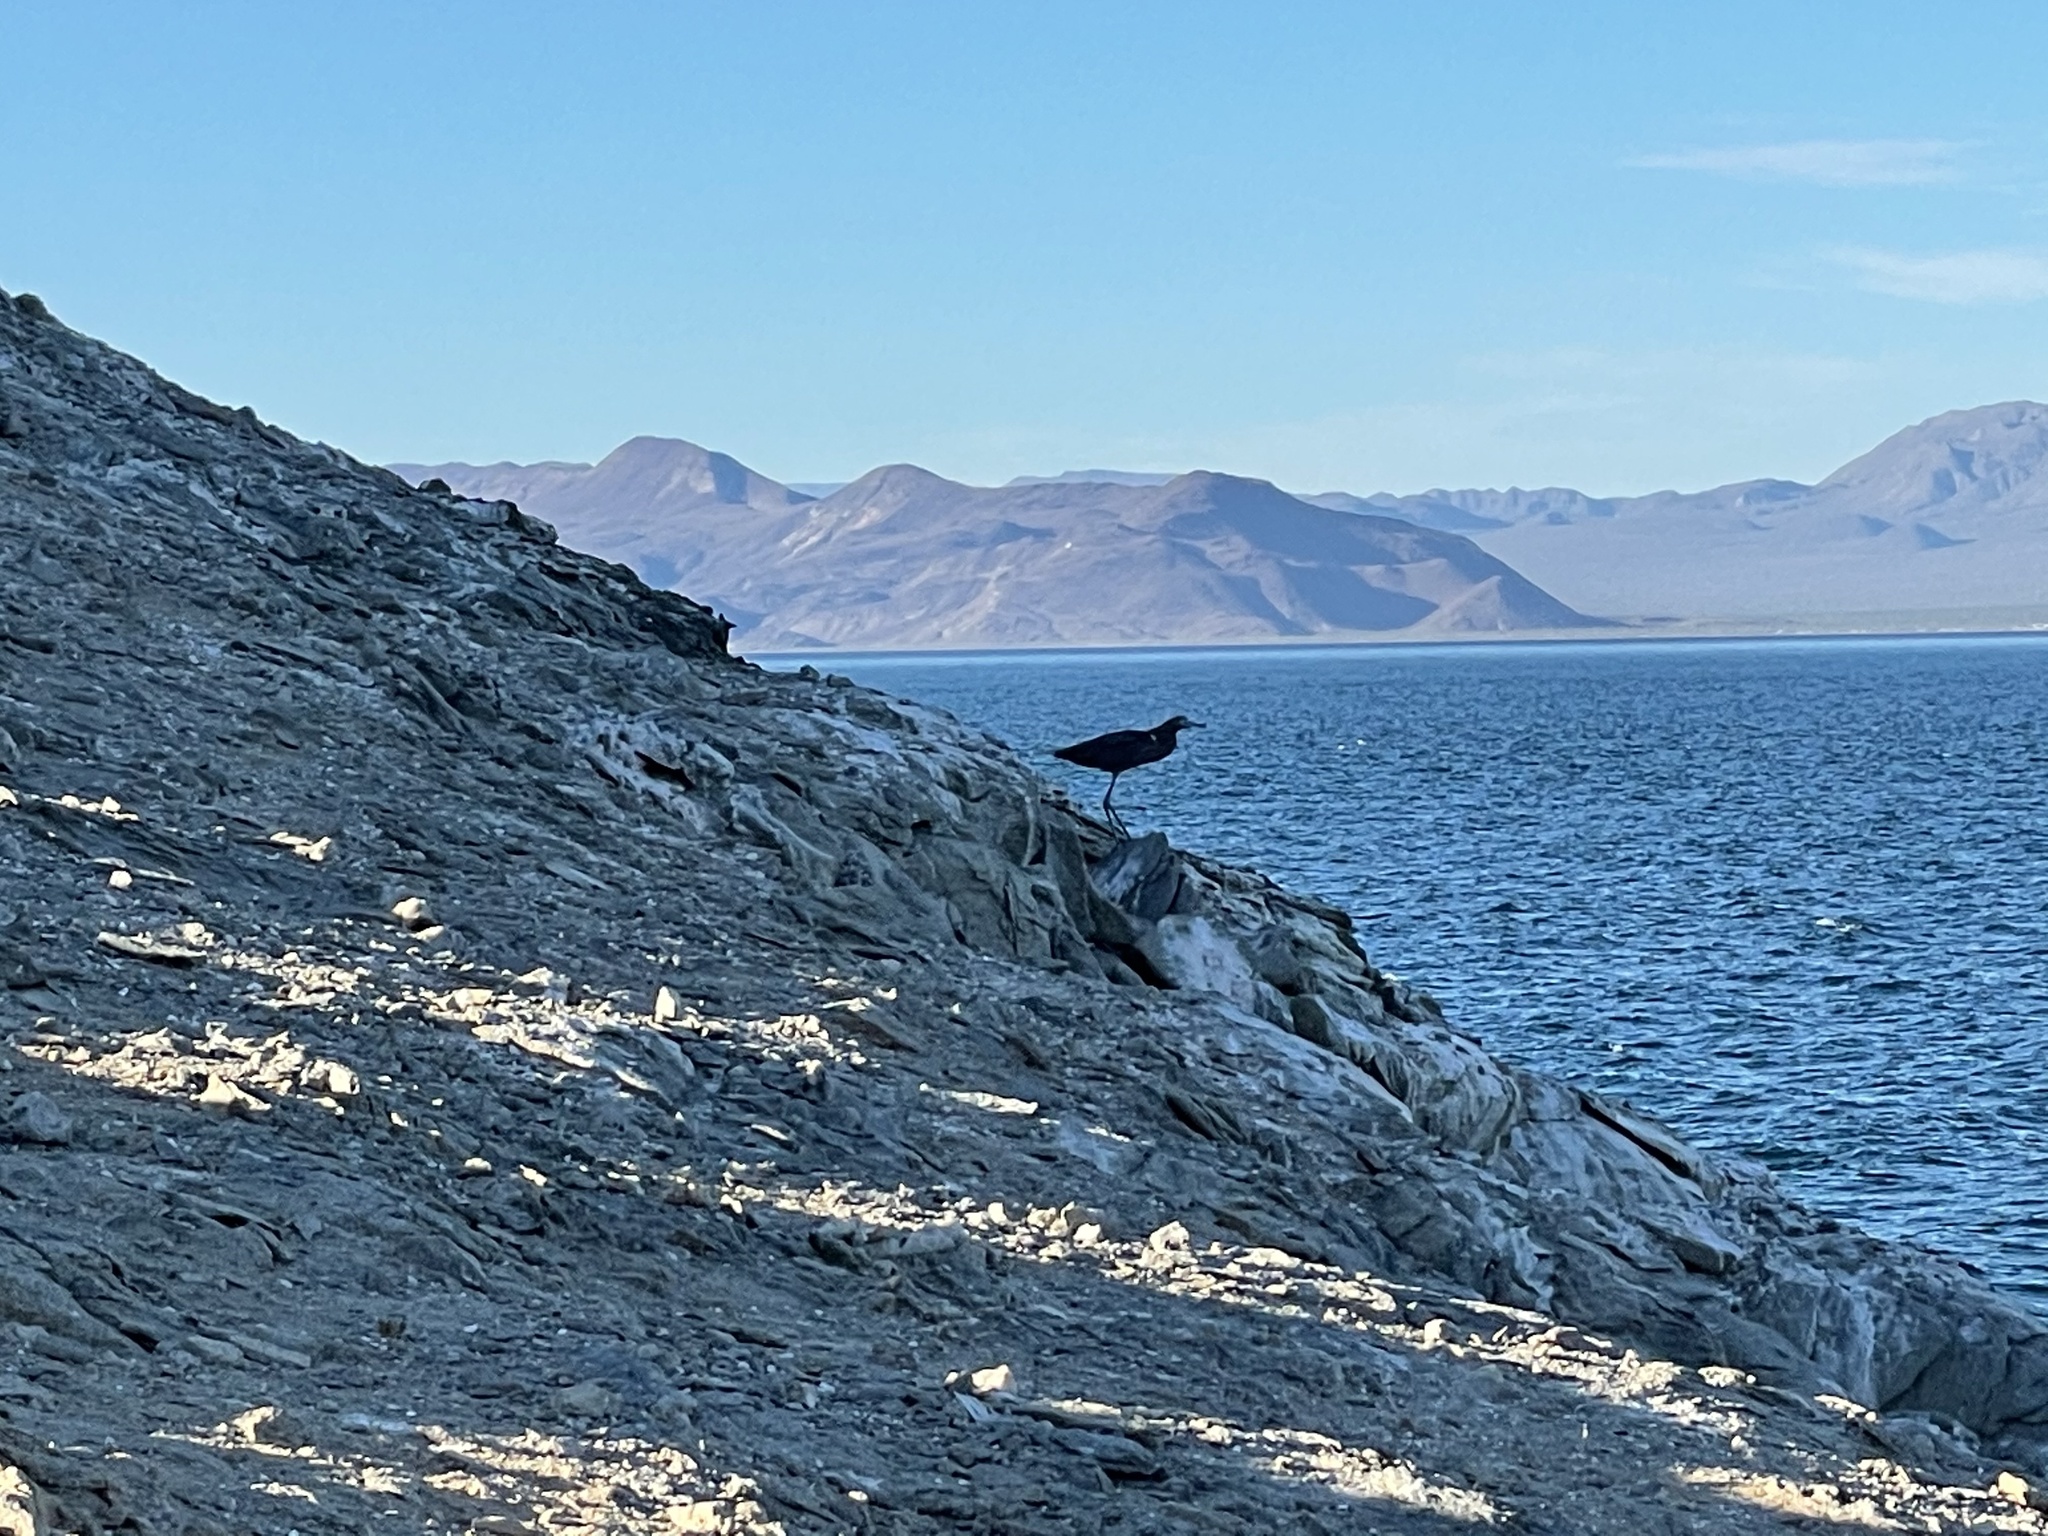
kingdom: Animalia
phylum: Chordata
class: Aves
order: Pelecaniformes
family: Ardeidae
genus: Egretta
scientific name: Egretta rufescens
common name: Reddish egret
